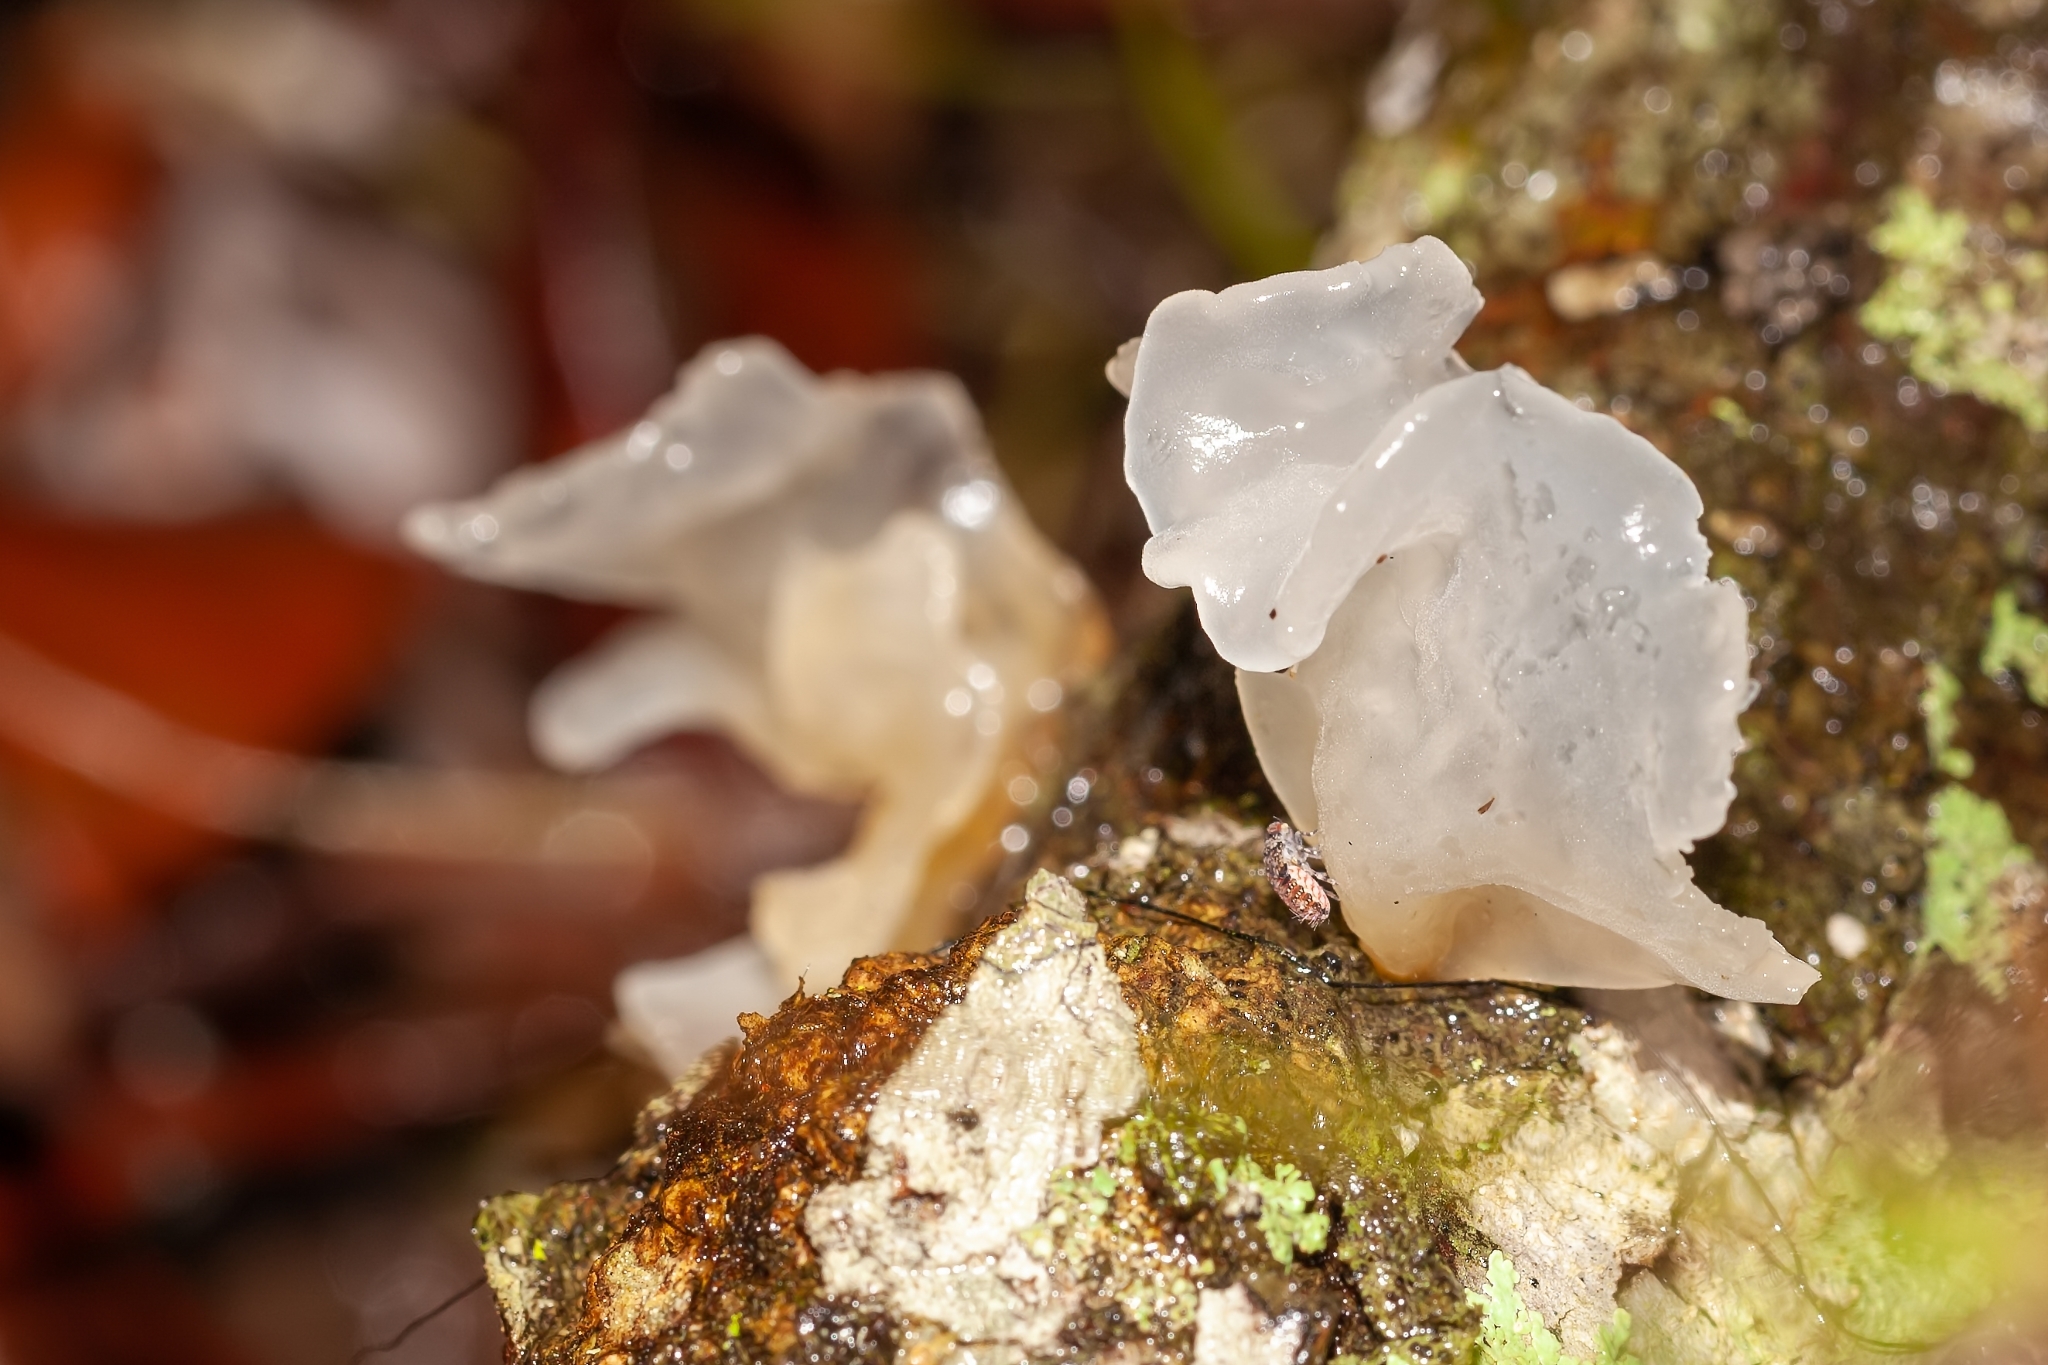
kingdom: Fungi
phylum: Basidiomycota
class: Tremellomycetes
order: Tremellales
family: Tremellaceae
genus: Tremella
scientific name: Tremella fuciformis
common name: Snow fungus
